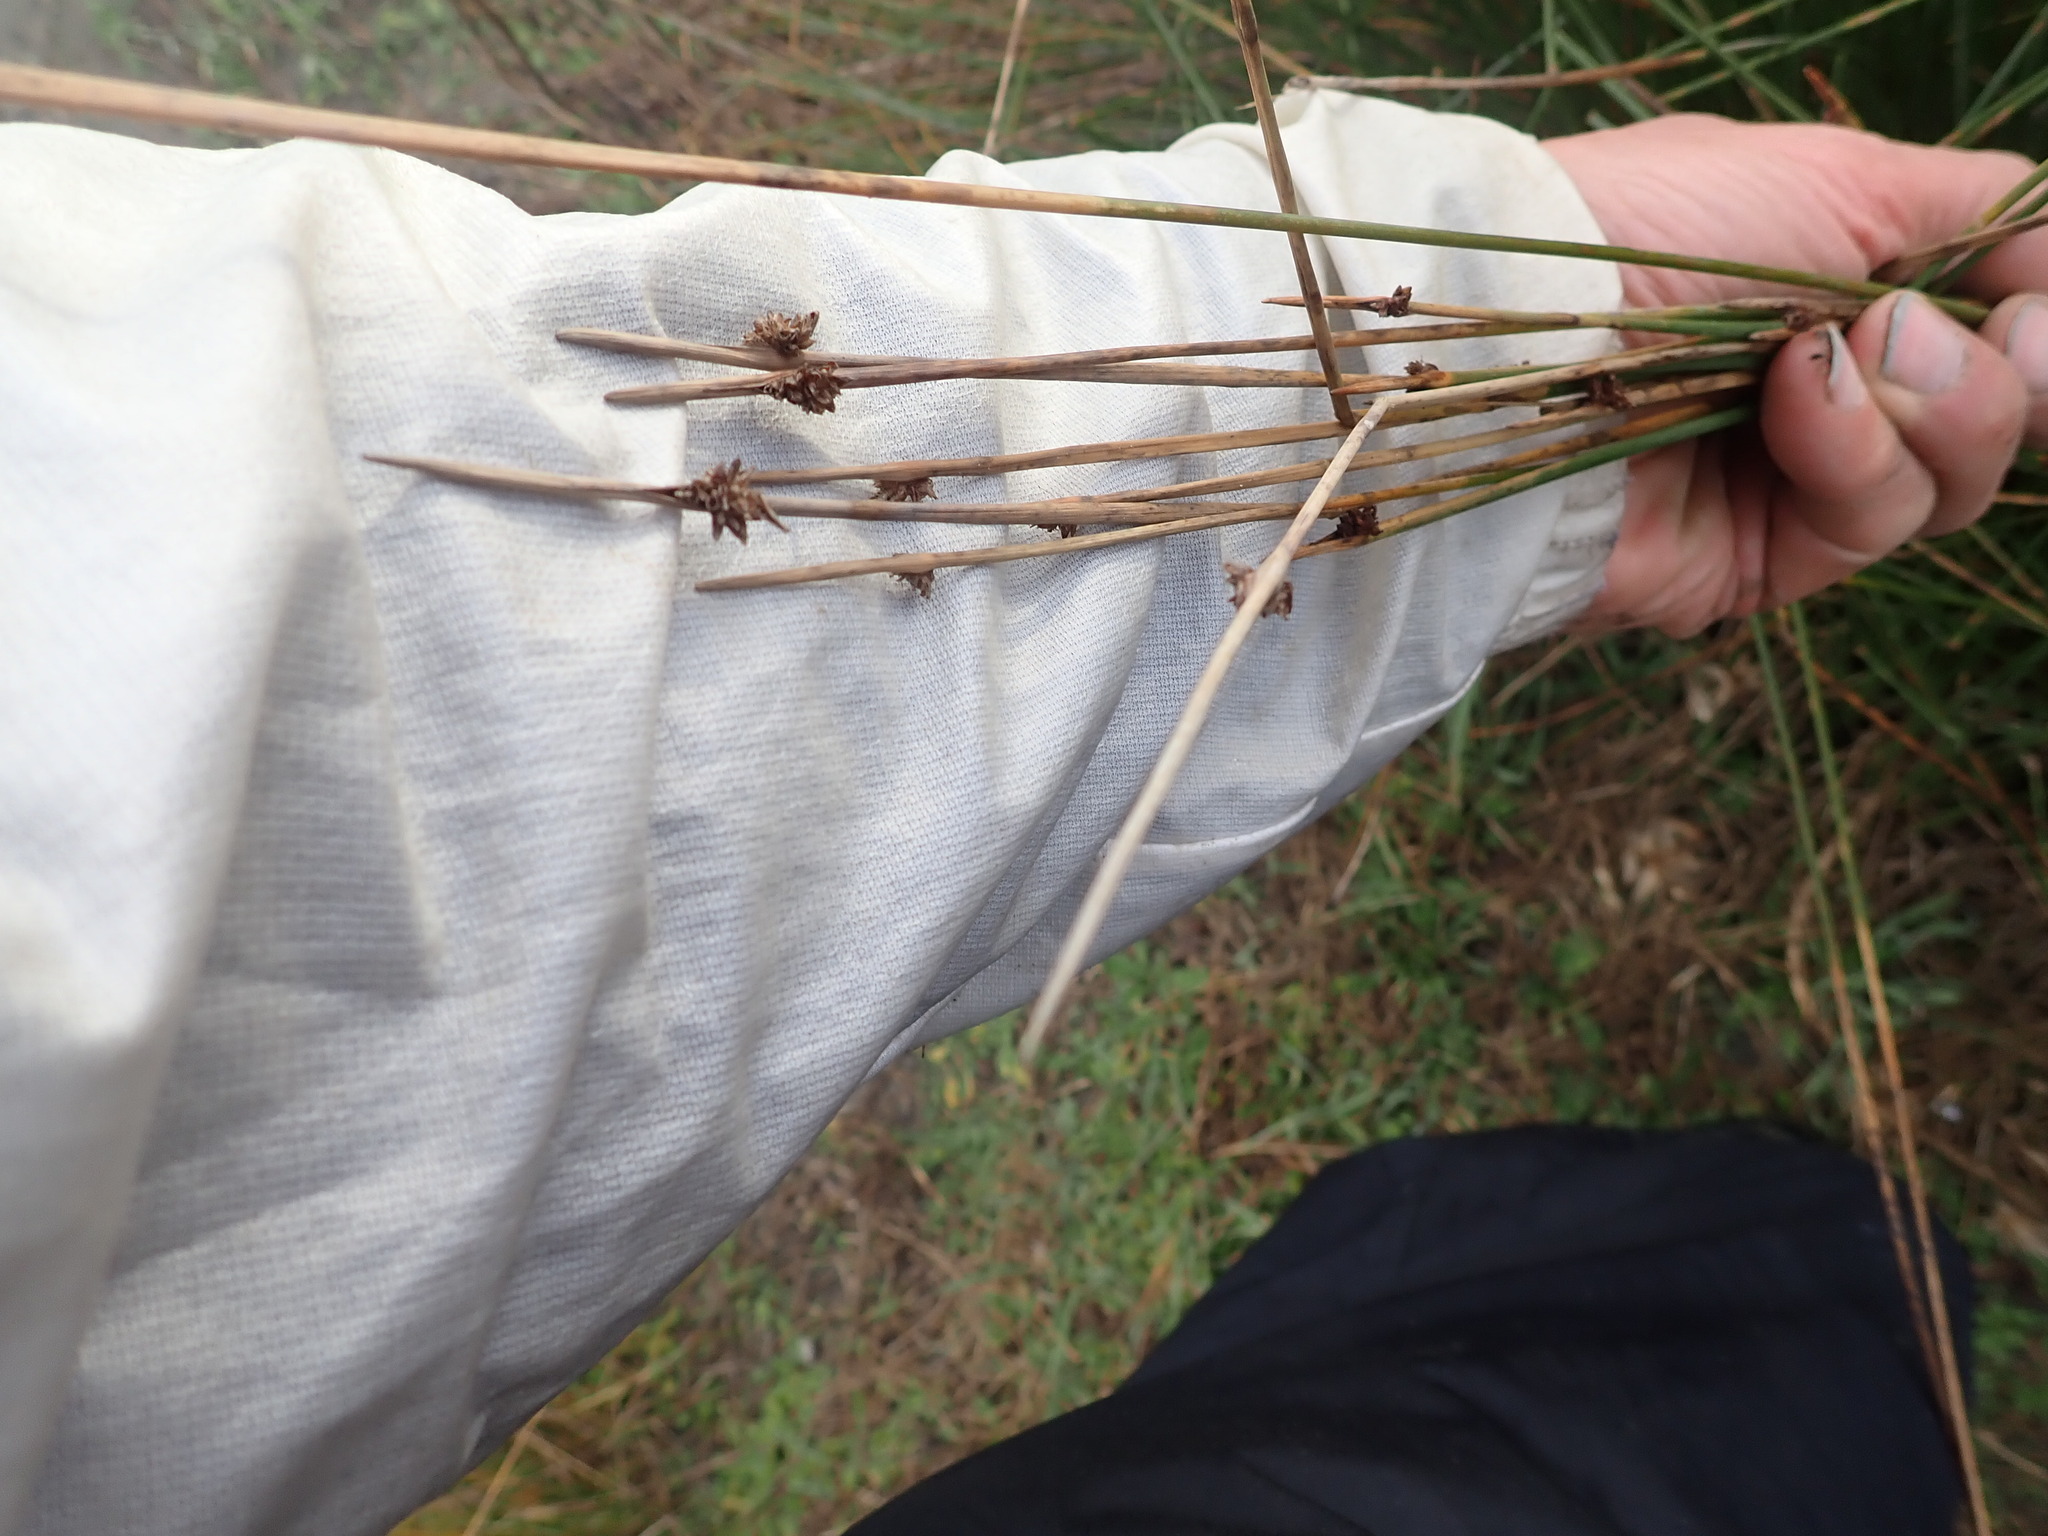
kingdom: Plantae
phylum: Tracheophyta
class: Liliopsida
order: Poales
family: Cyperaceae
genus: Ficinia
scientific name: Ficinia nodosa
